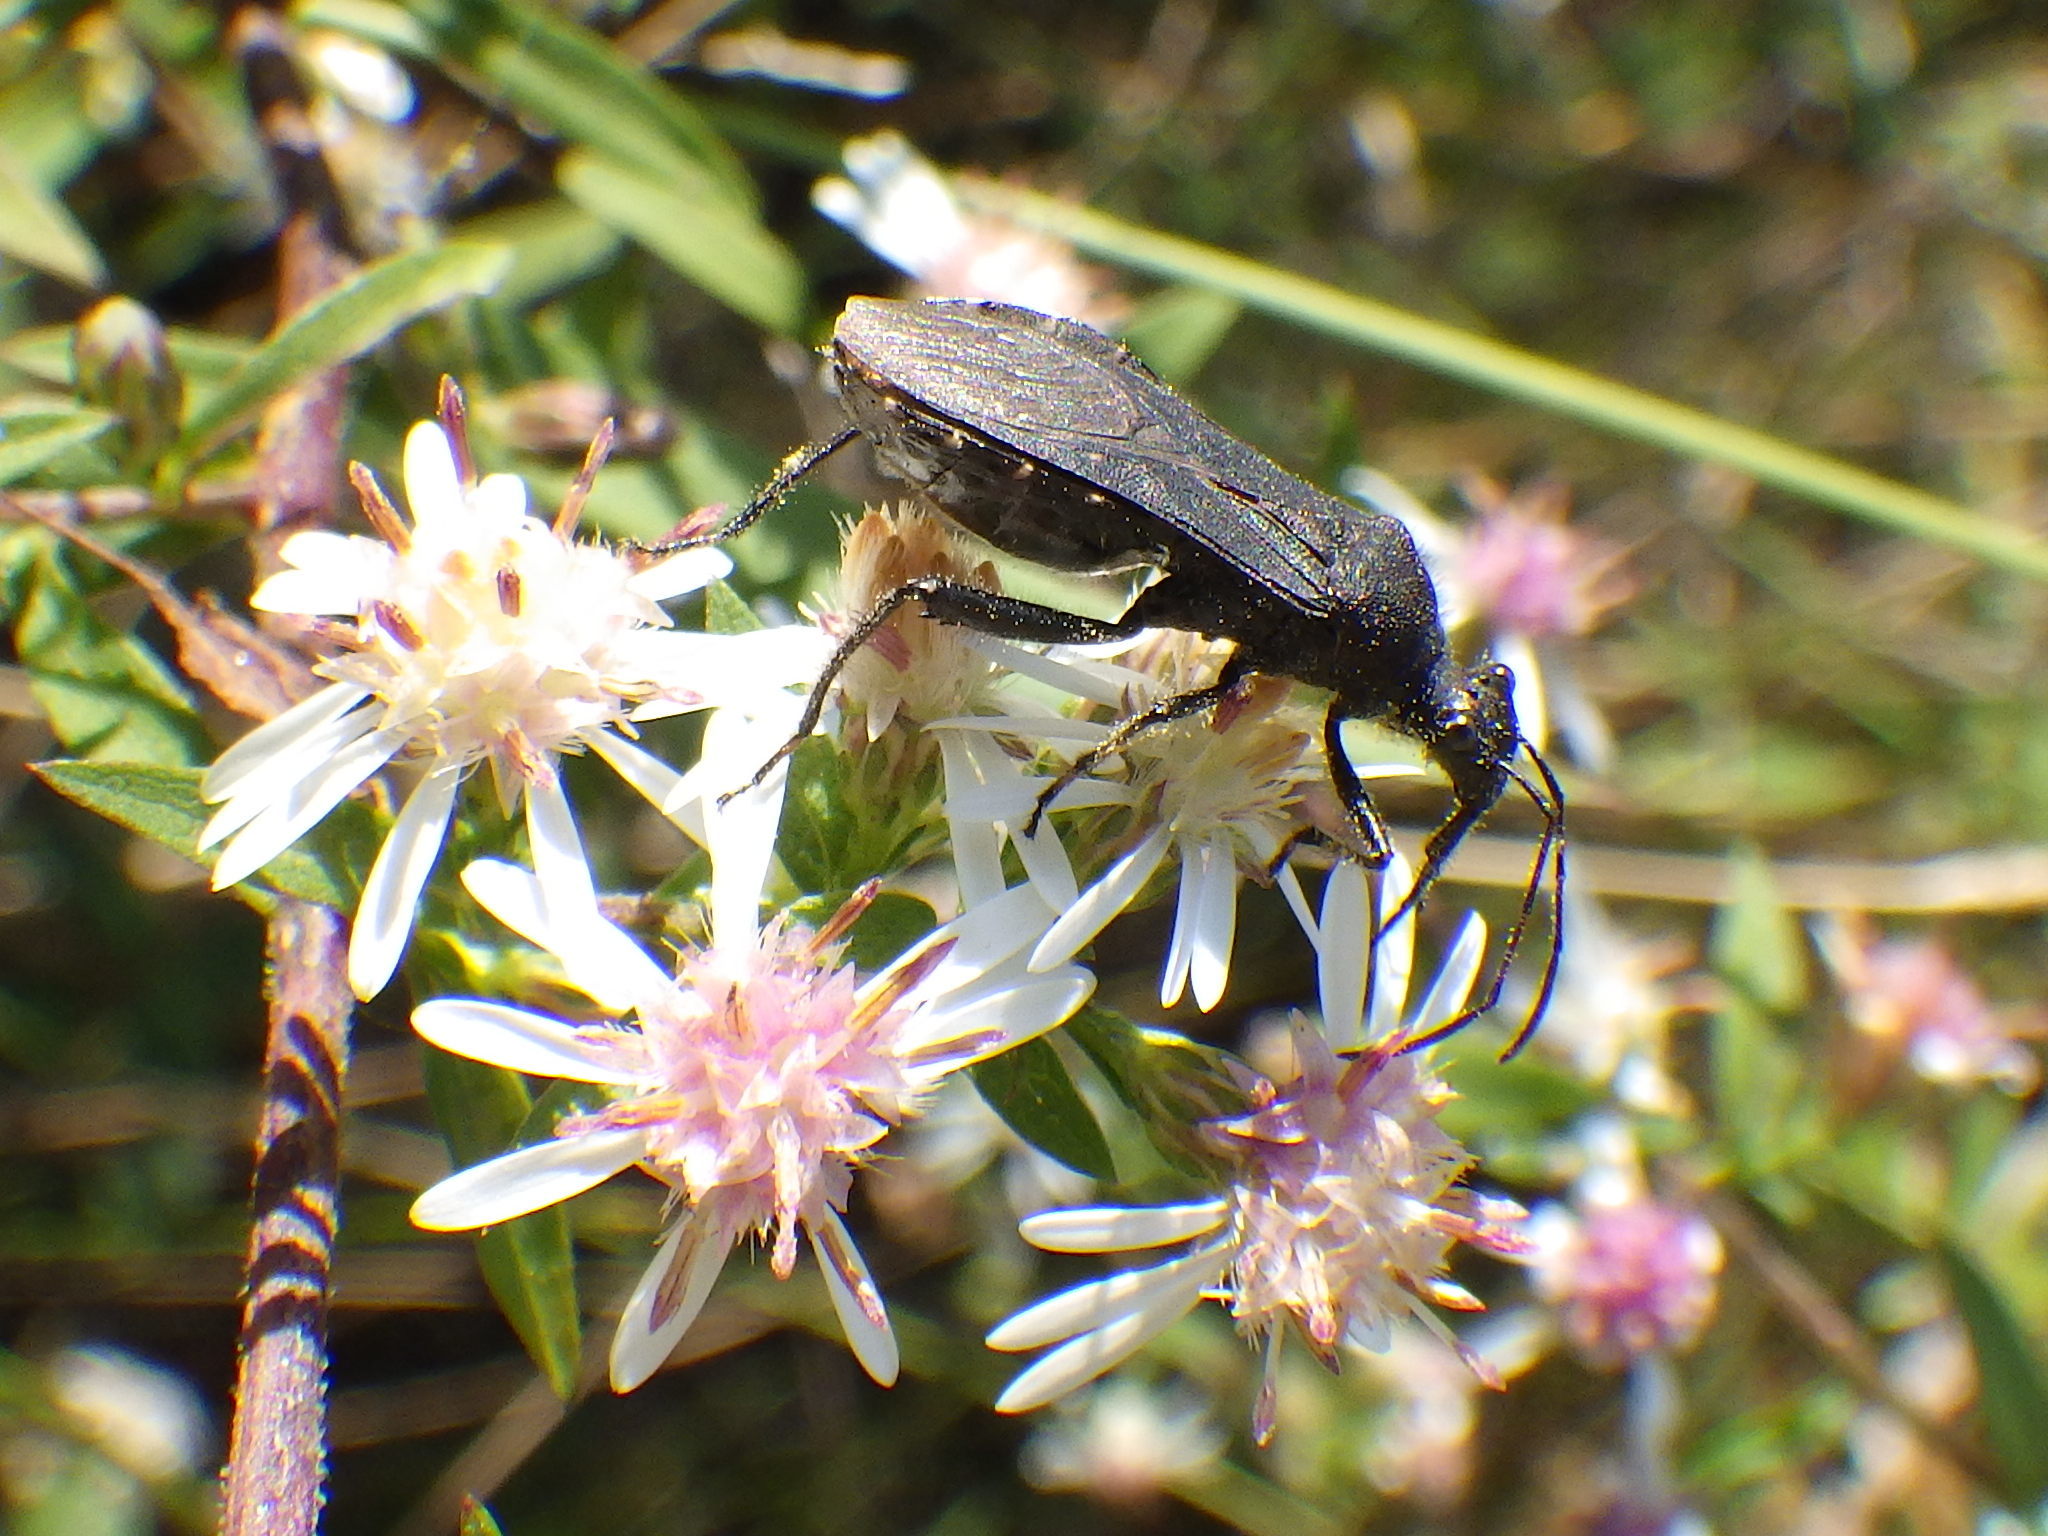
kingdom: Animalia
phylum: Arthropoda
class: Insecta
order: Hemiptera
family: Alydidae
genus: Alydus
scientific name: Alydus eurinus
